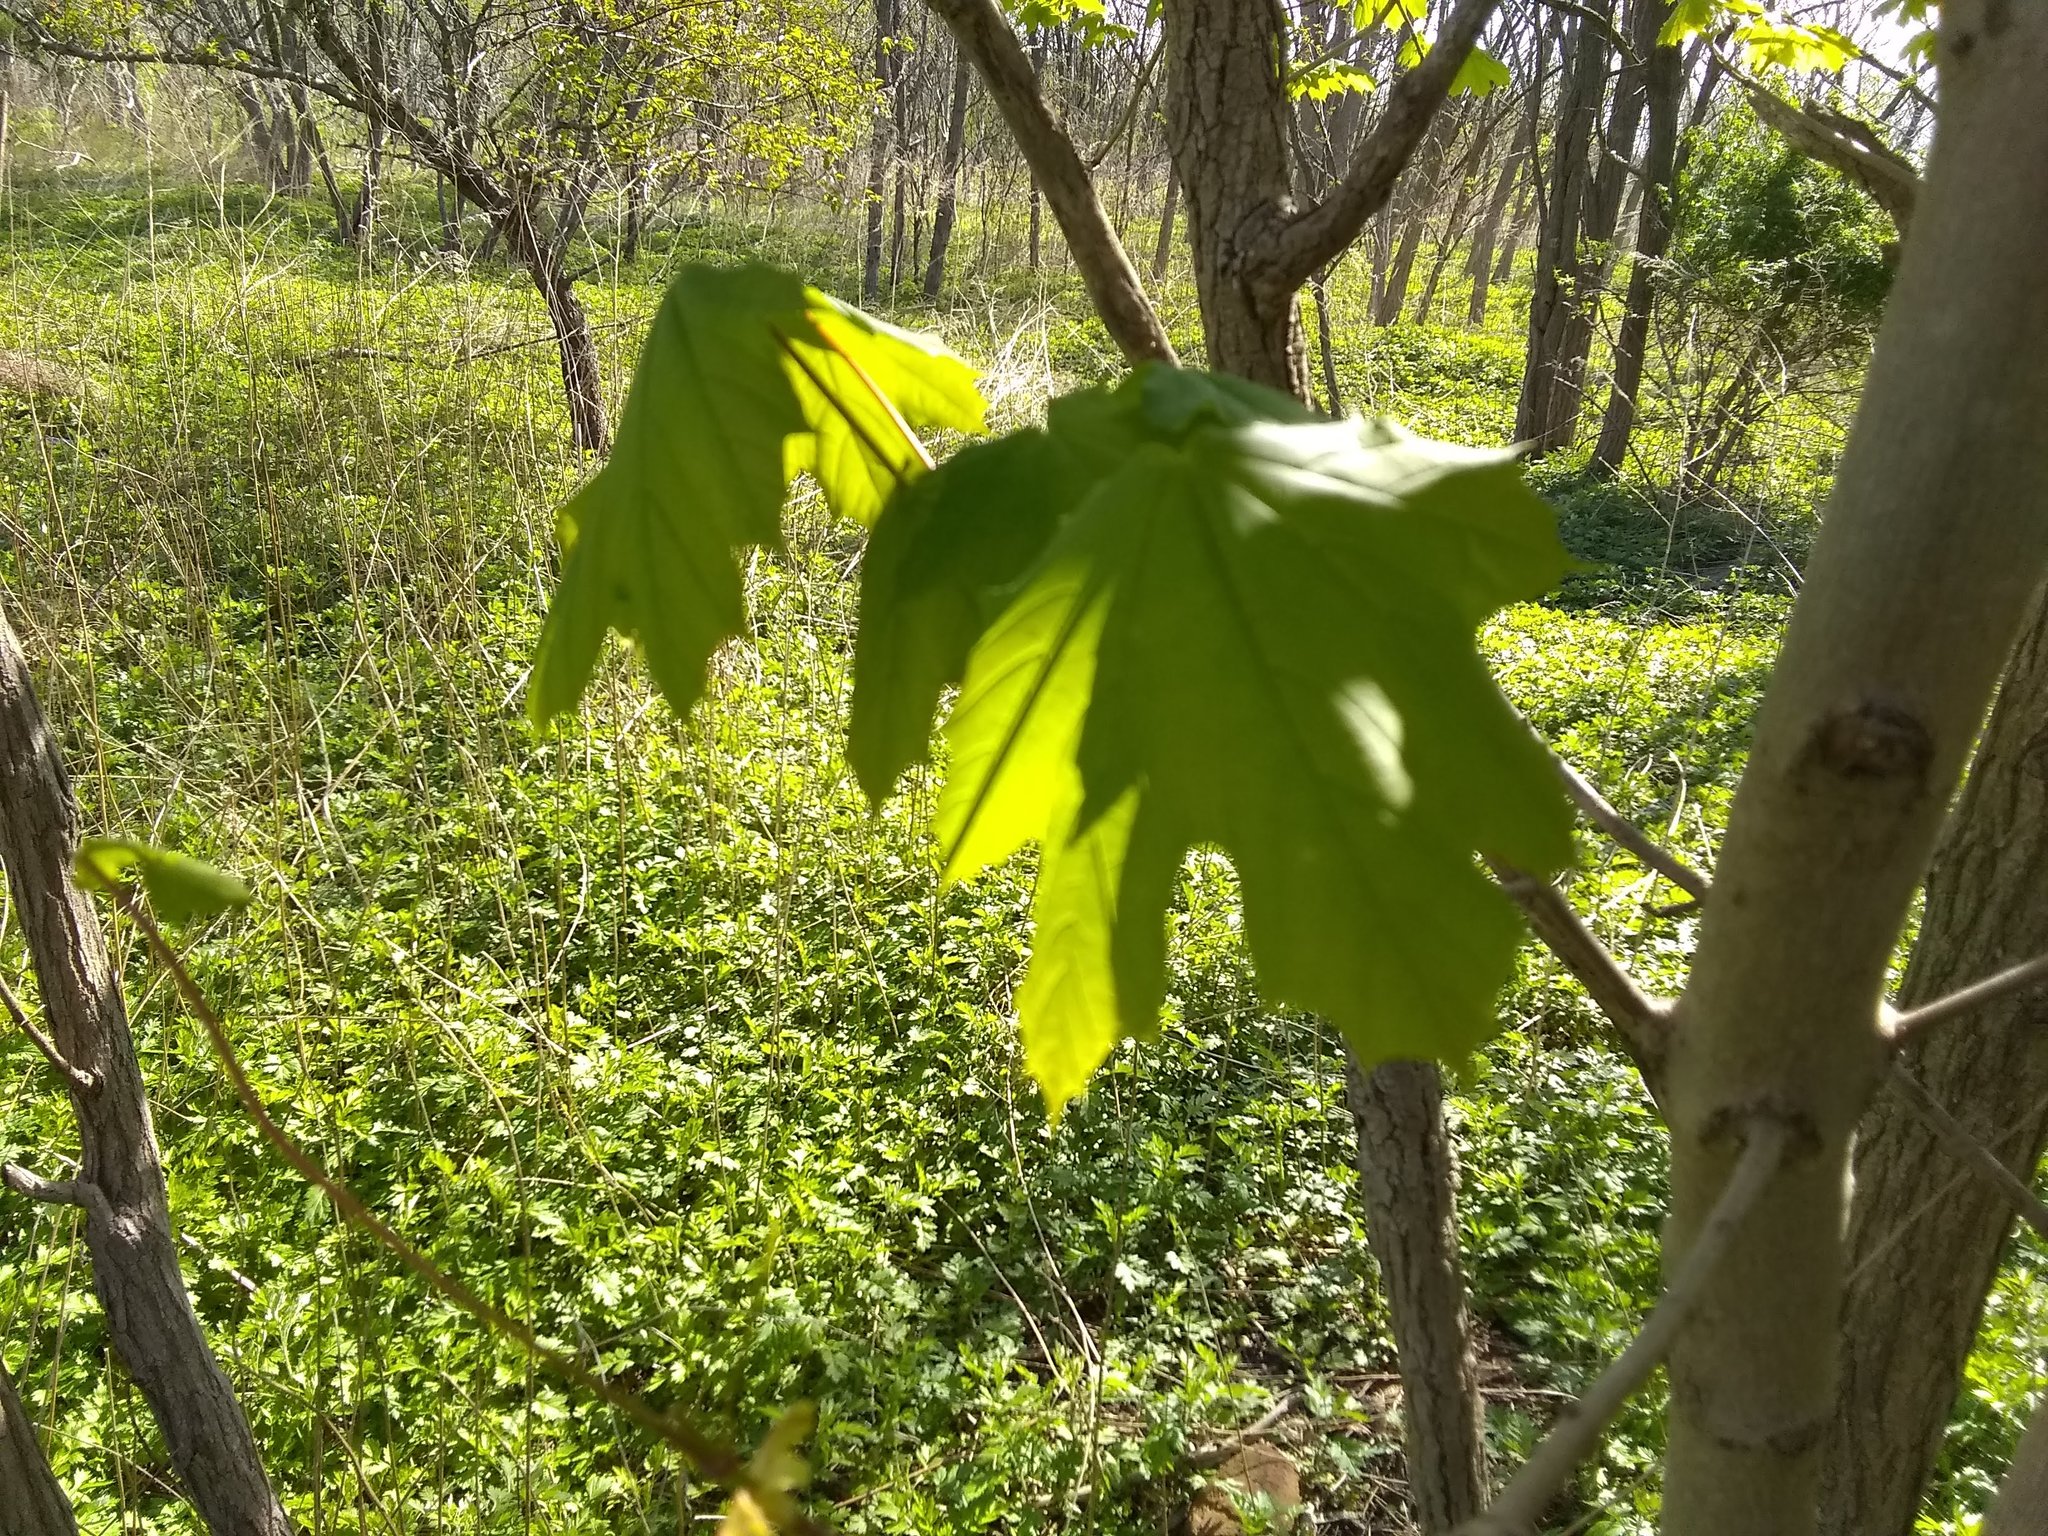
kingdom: Plantae
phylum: Tracheophyta
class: Magnoliopsida
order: Sapindales
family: Sapindaceae
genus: Acer
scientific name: Acer platanoides
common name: Norway maple
